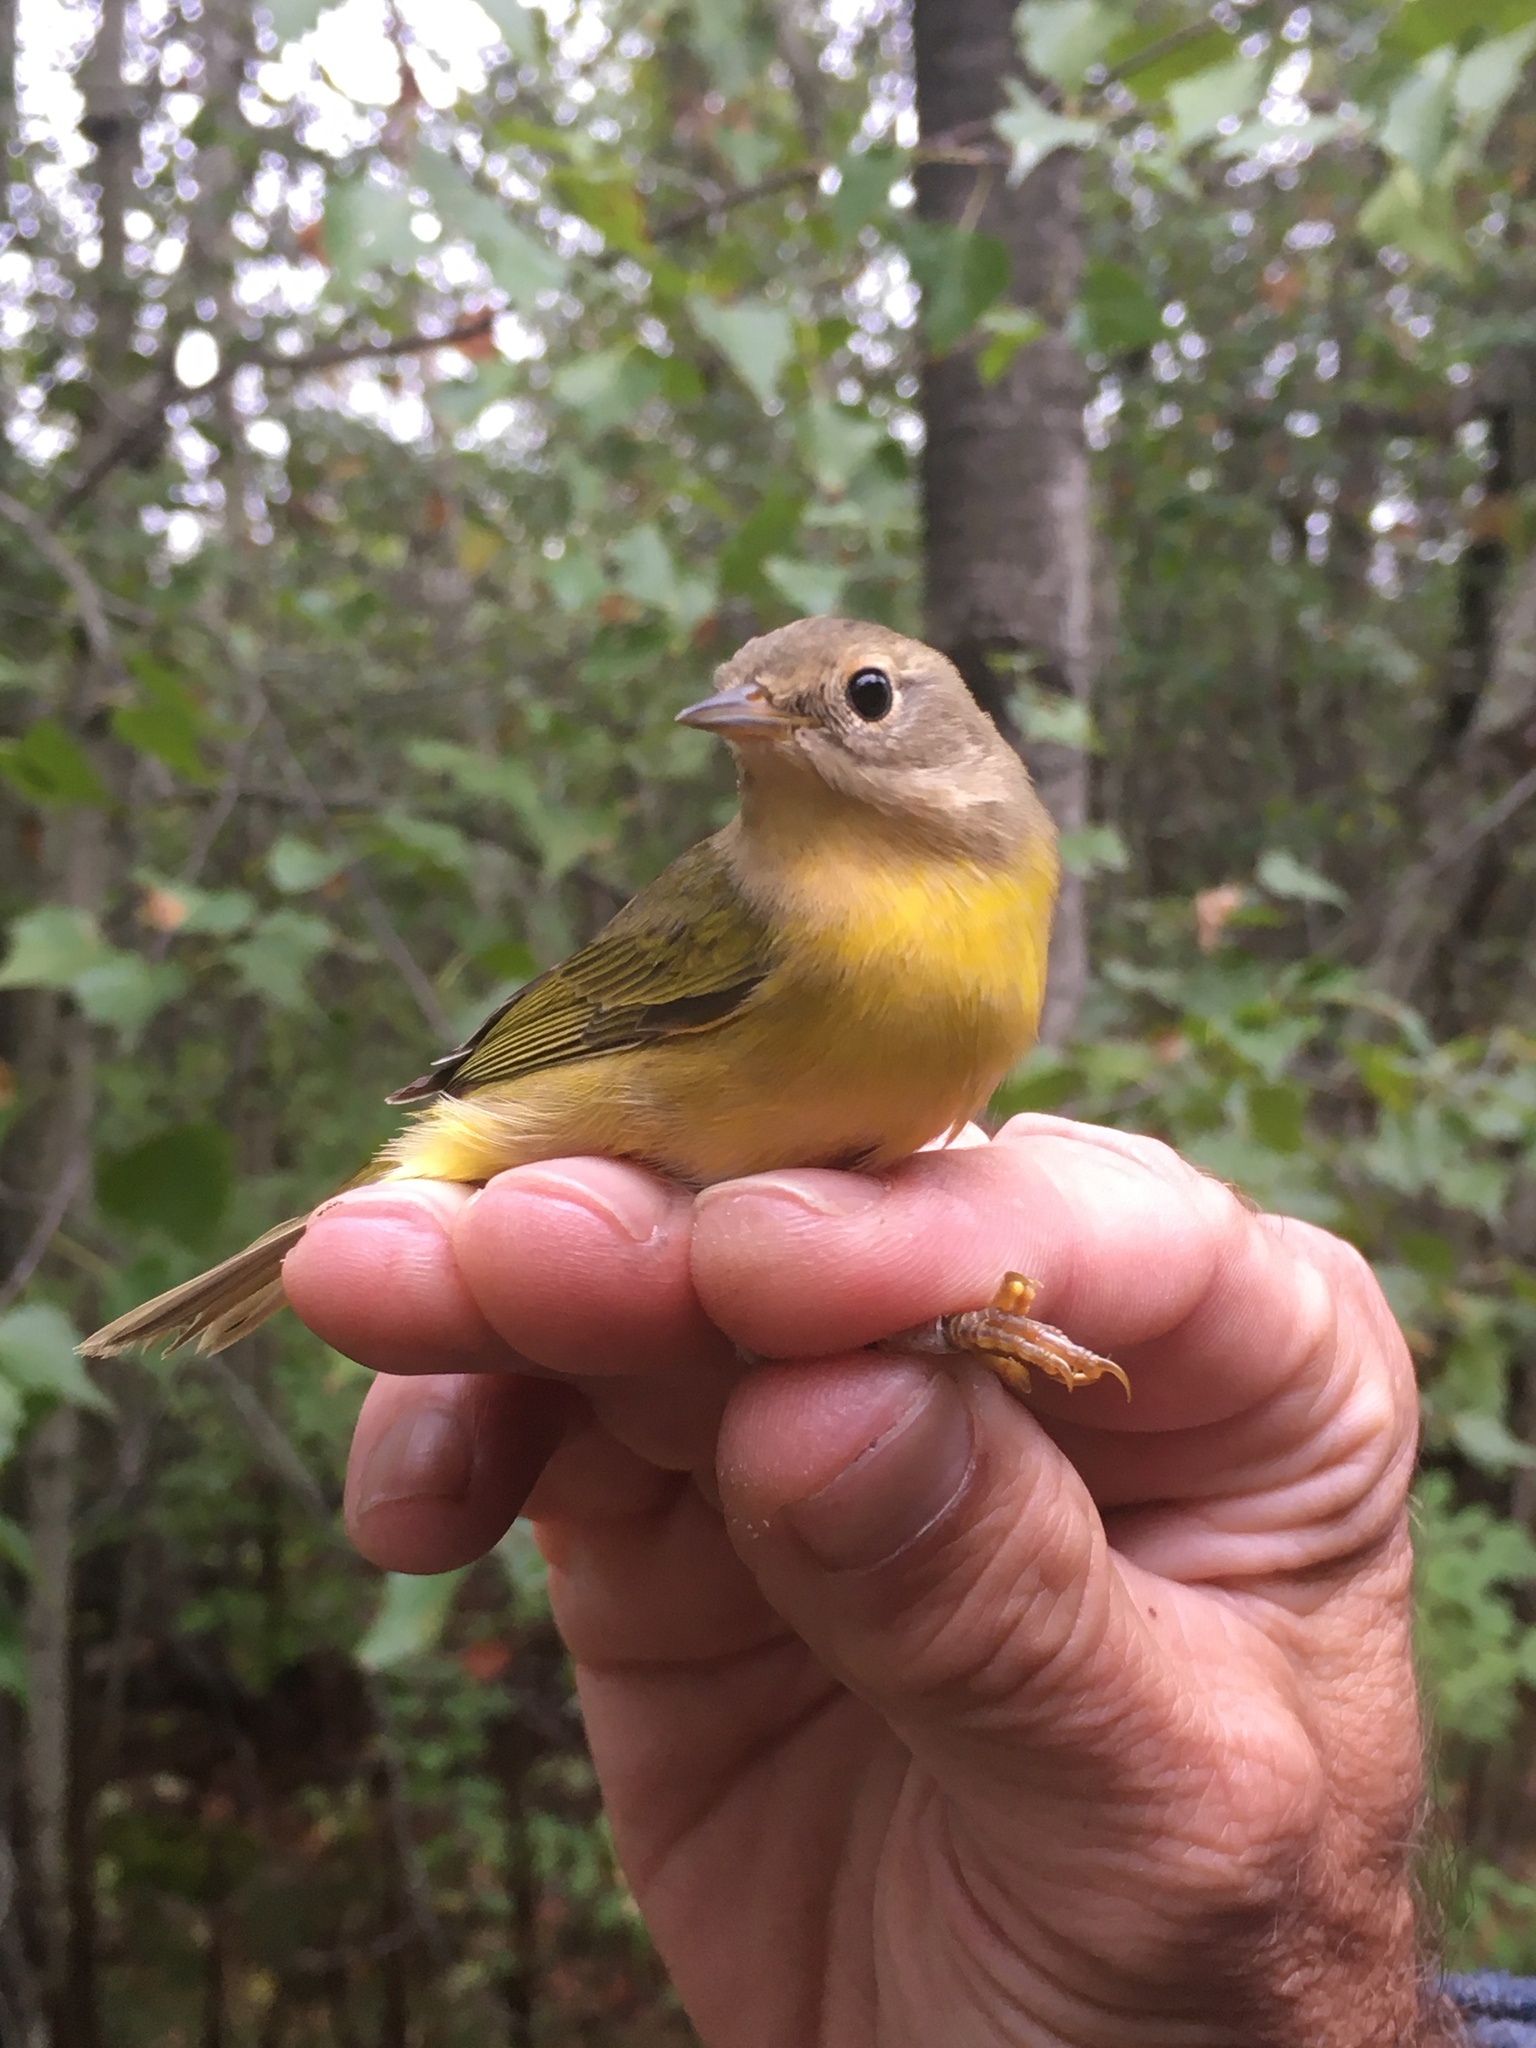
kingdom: Animalia
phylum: Chordata
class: Aves
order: Passeriformes
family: Parulidae
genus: Leiothlypis
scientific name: Leiothlypis ruficapilla
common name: Nashville warbler
